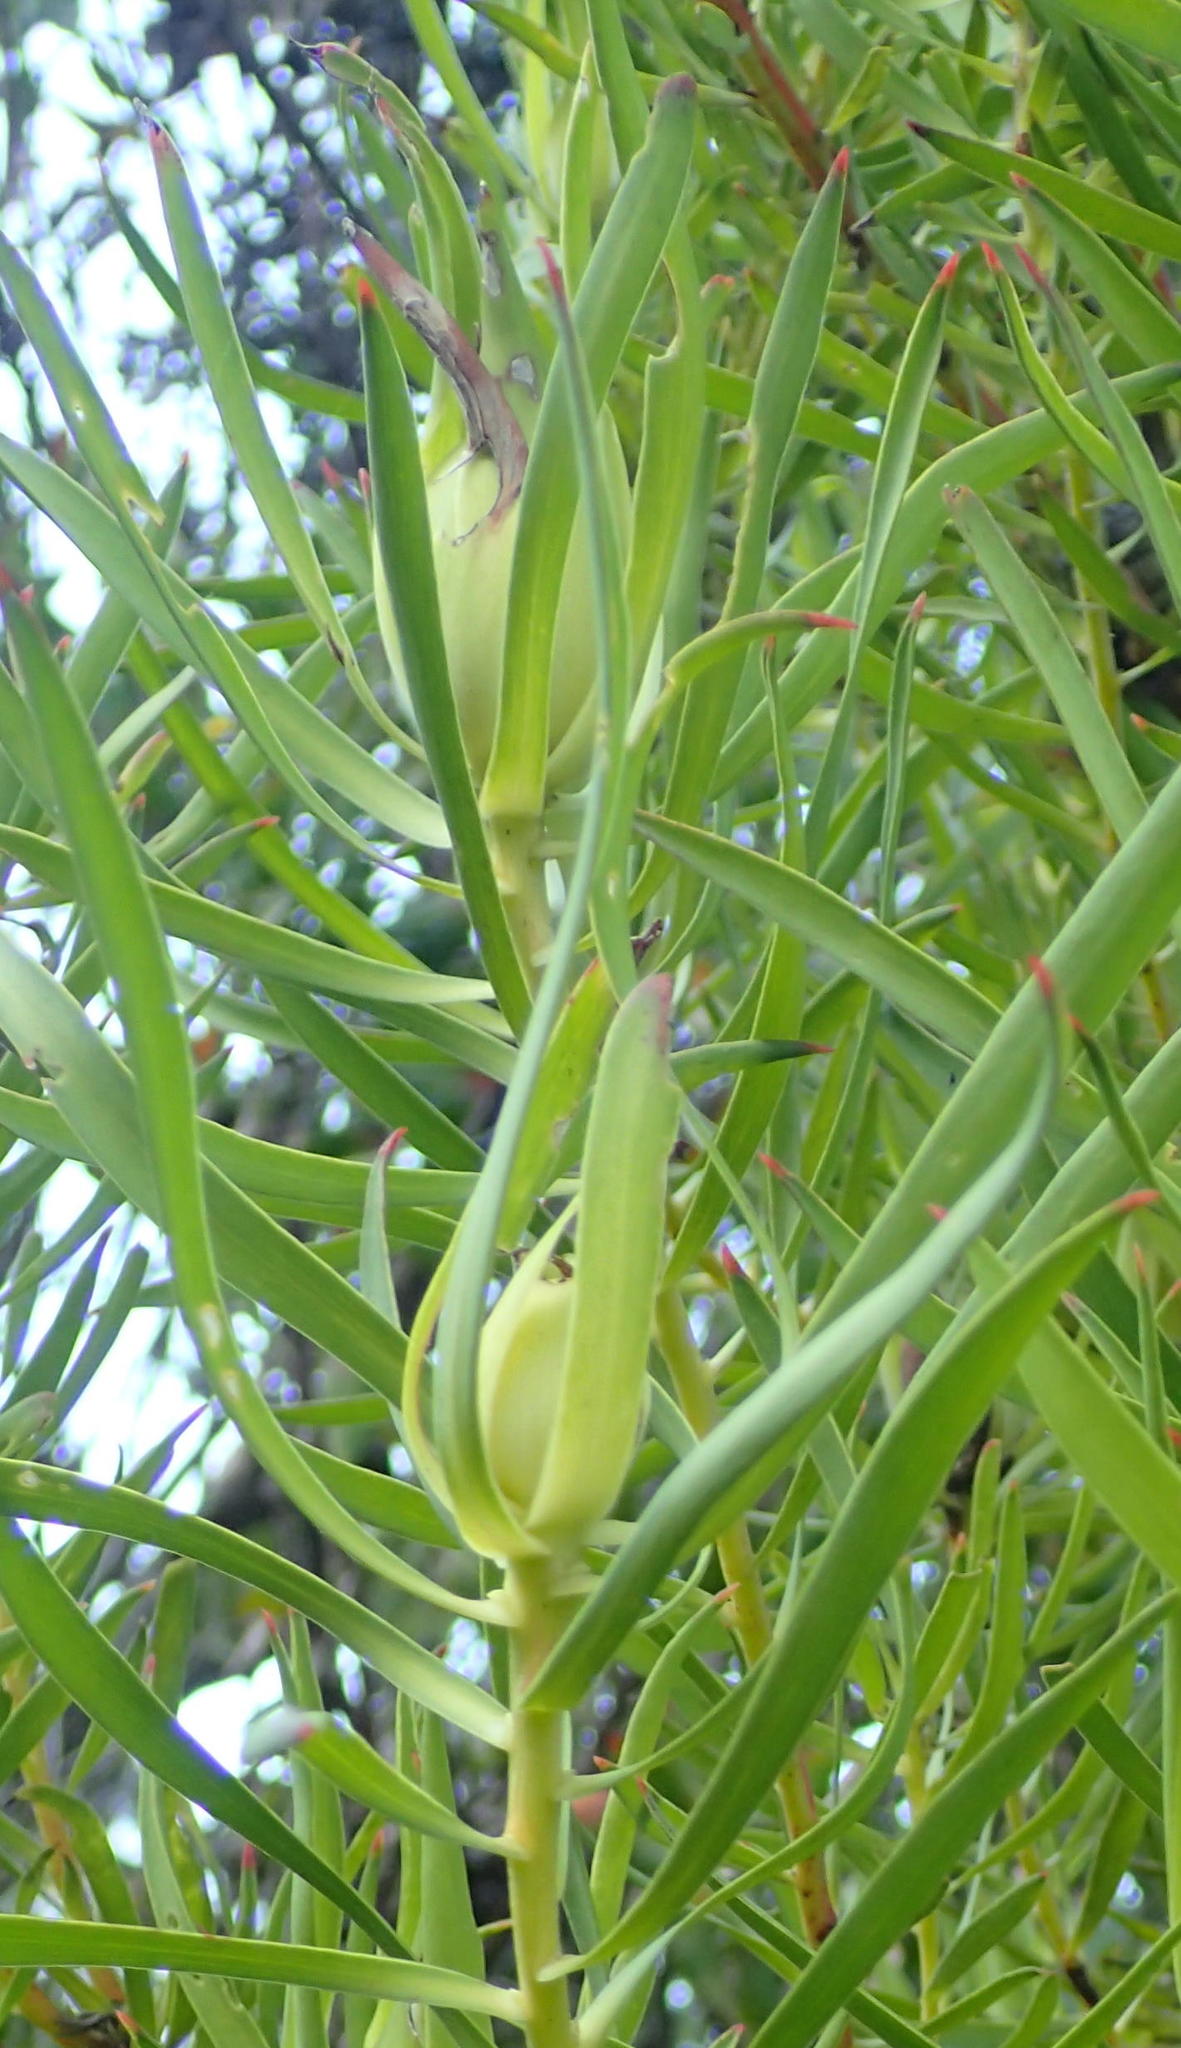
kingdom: Plantae
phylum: Tracheophyta
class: Magnoliopsida
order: Proteales
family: Proteaceae
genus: Leucadendron
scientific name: Leucadendron salignum
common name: Common sunshine conebush
